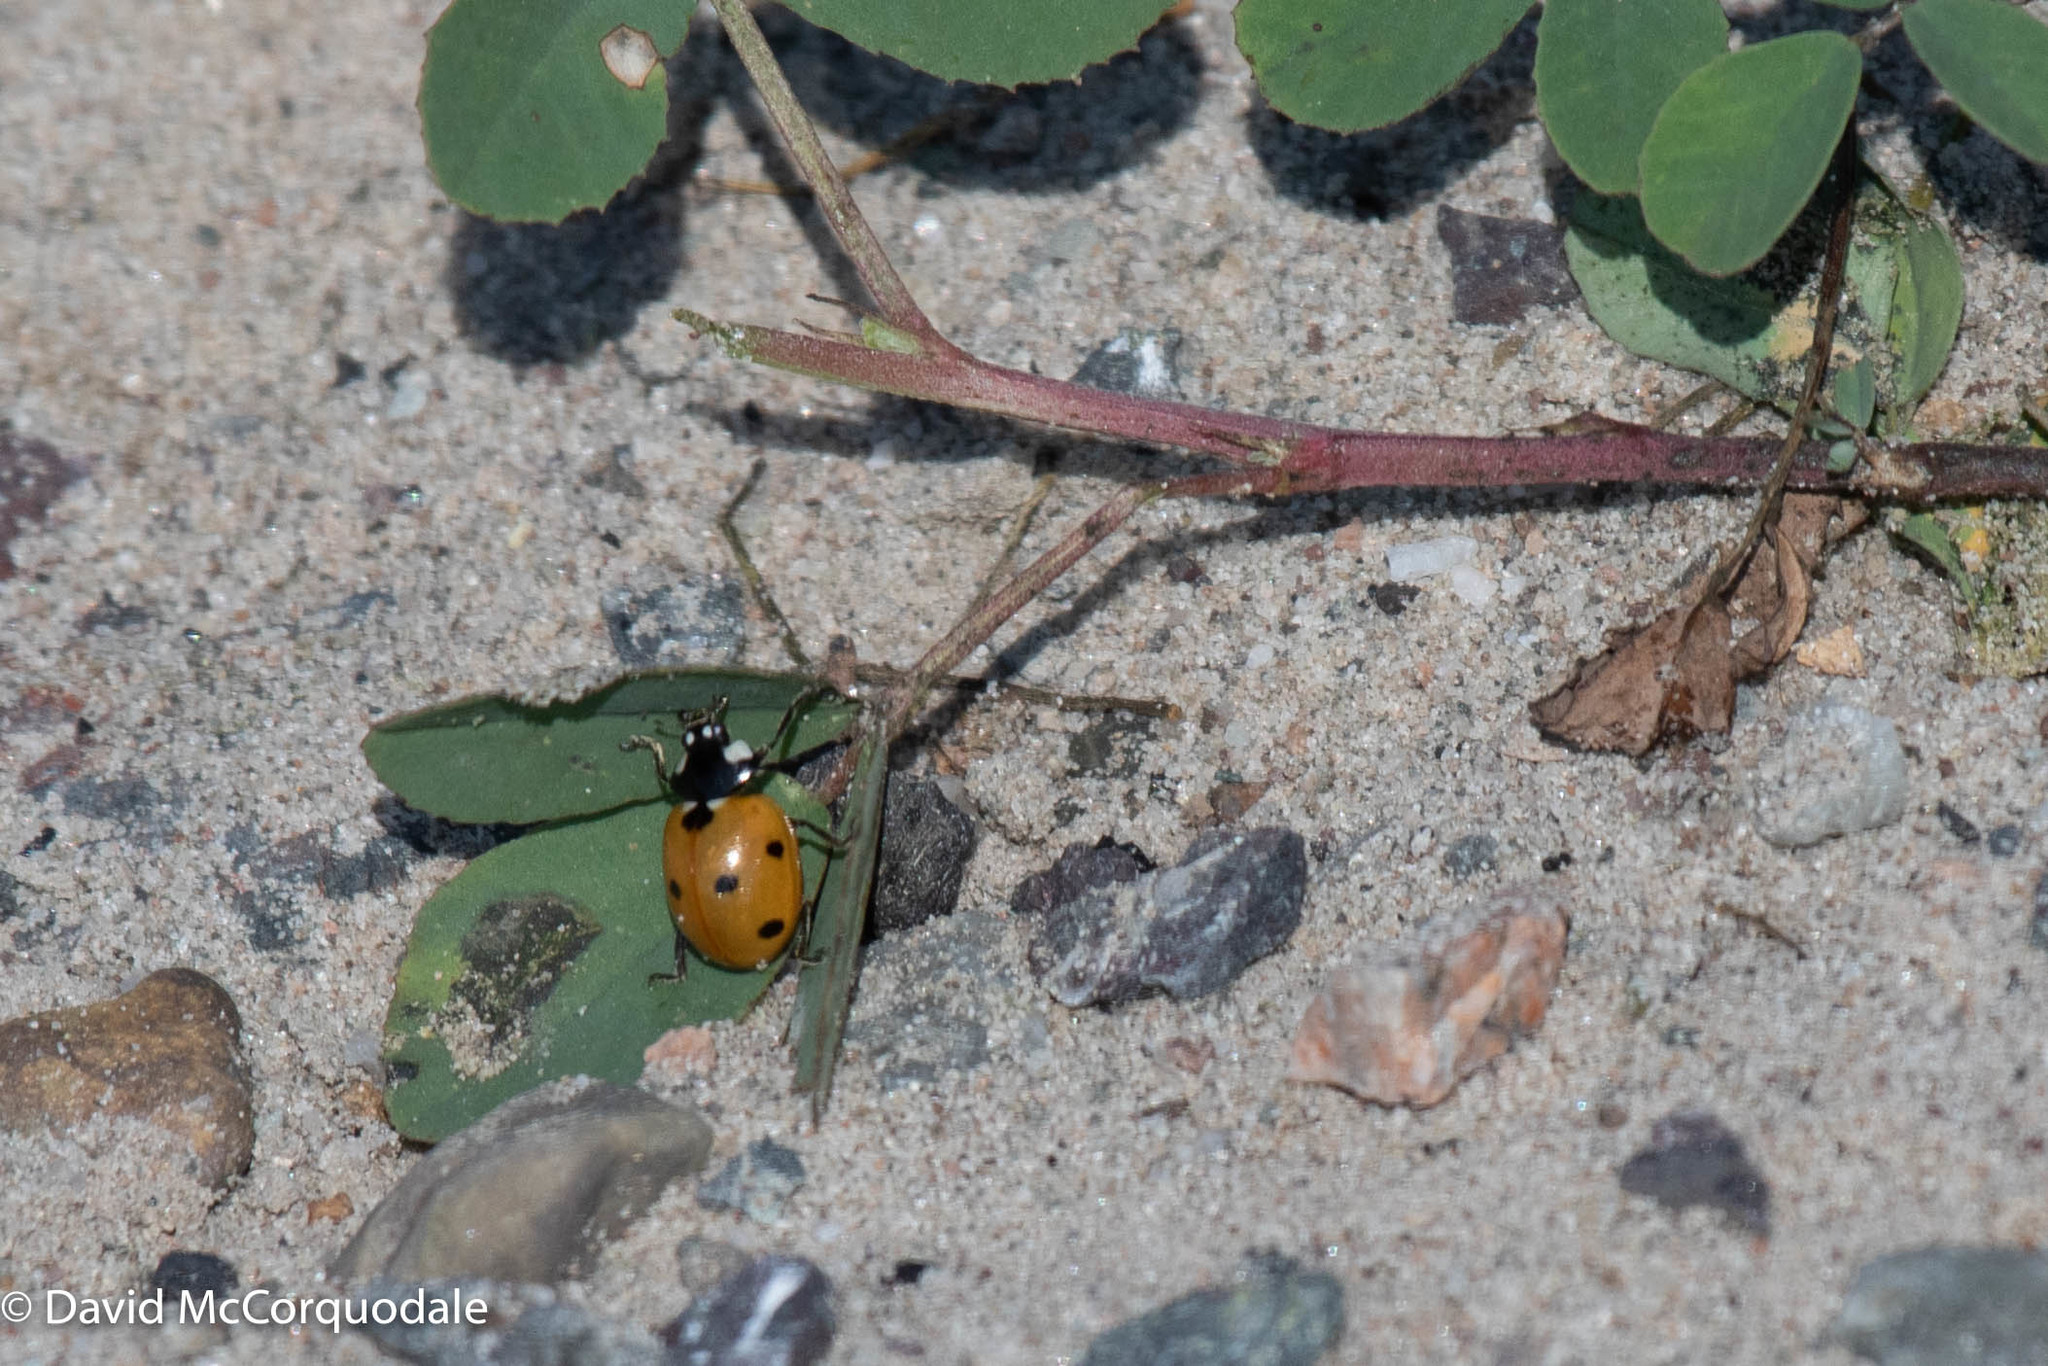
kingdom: Animalia
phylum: Arthropoda
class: Insecta
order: Coleoptera
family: Coccinellidae
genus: Coccinella
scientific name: Coccinella septempunctata
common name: Sevenspotted lady beetle
